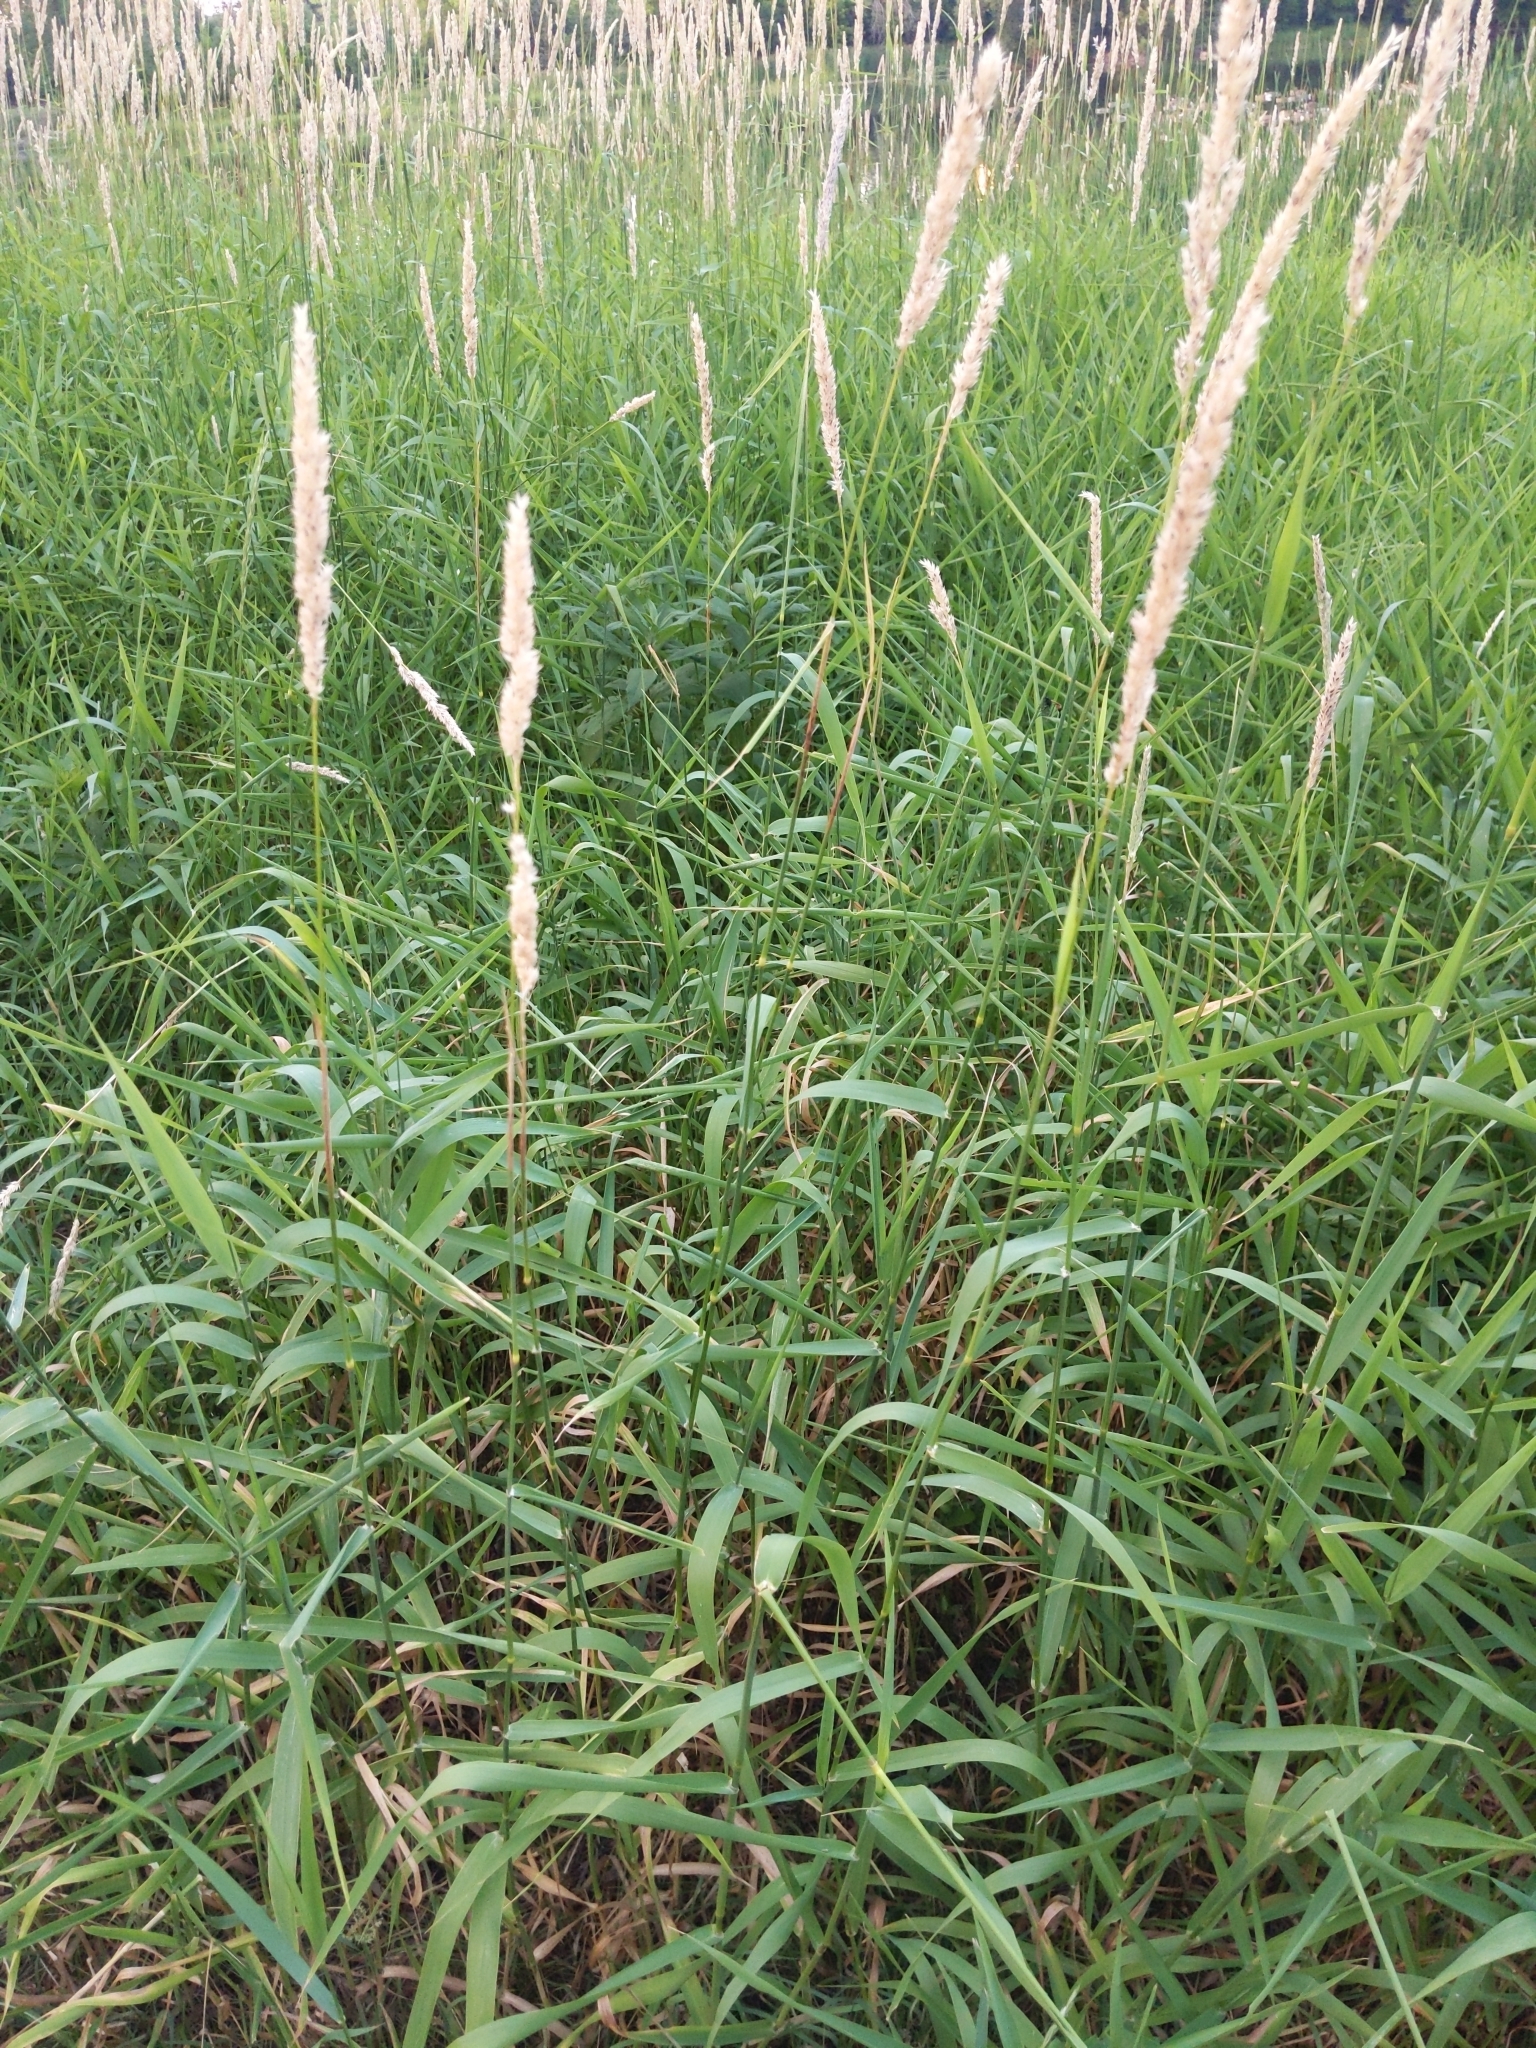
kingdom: Plantae
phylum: Tracheophyta
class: Liliopsida
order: Poales
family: Poaceae
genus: Phalaris
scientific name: Phalaris arundinacea
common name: Reed canary-grass
